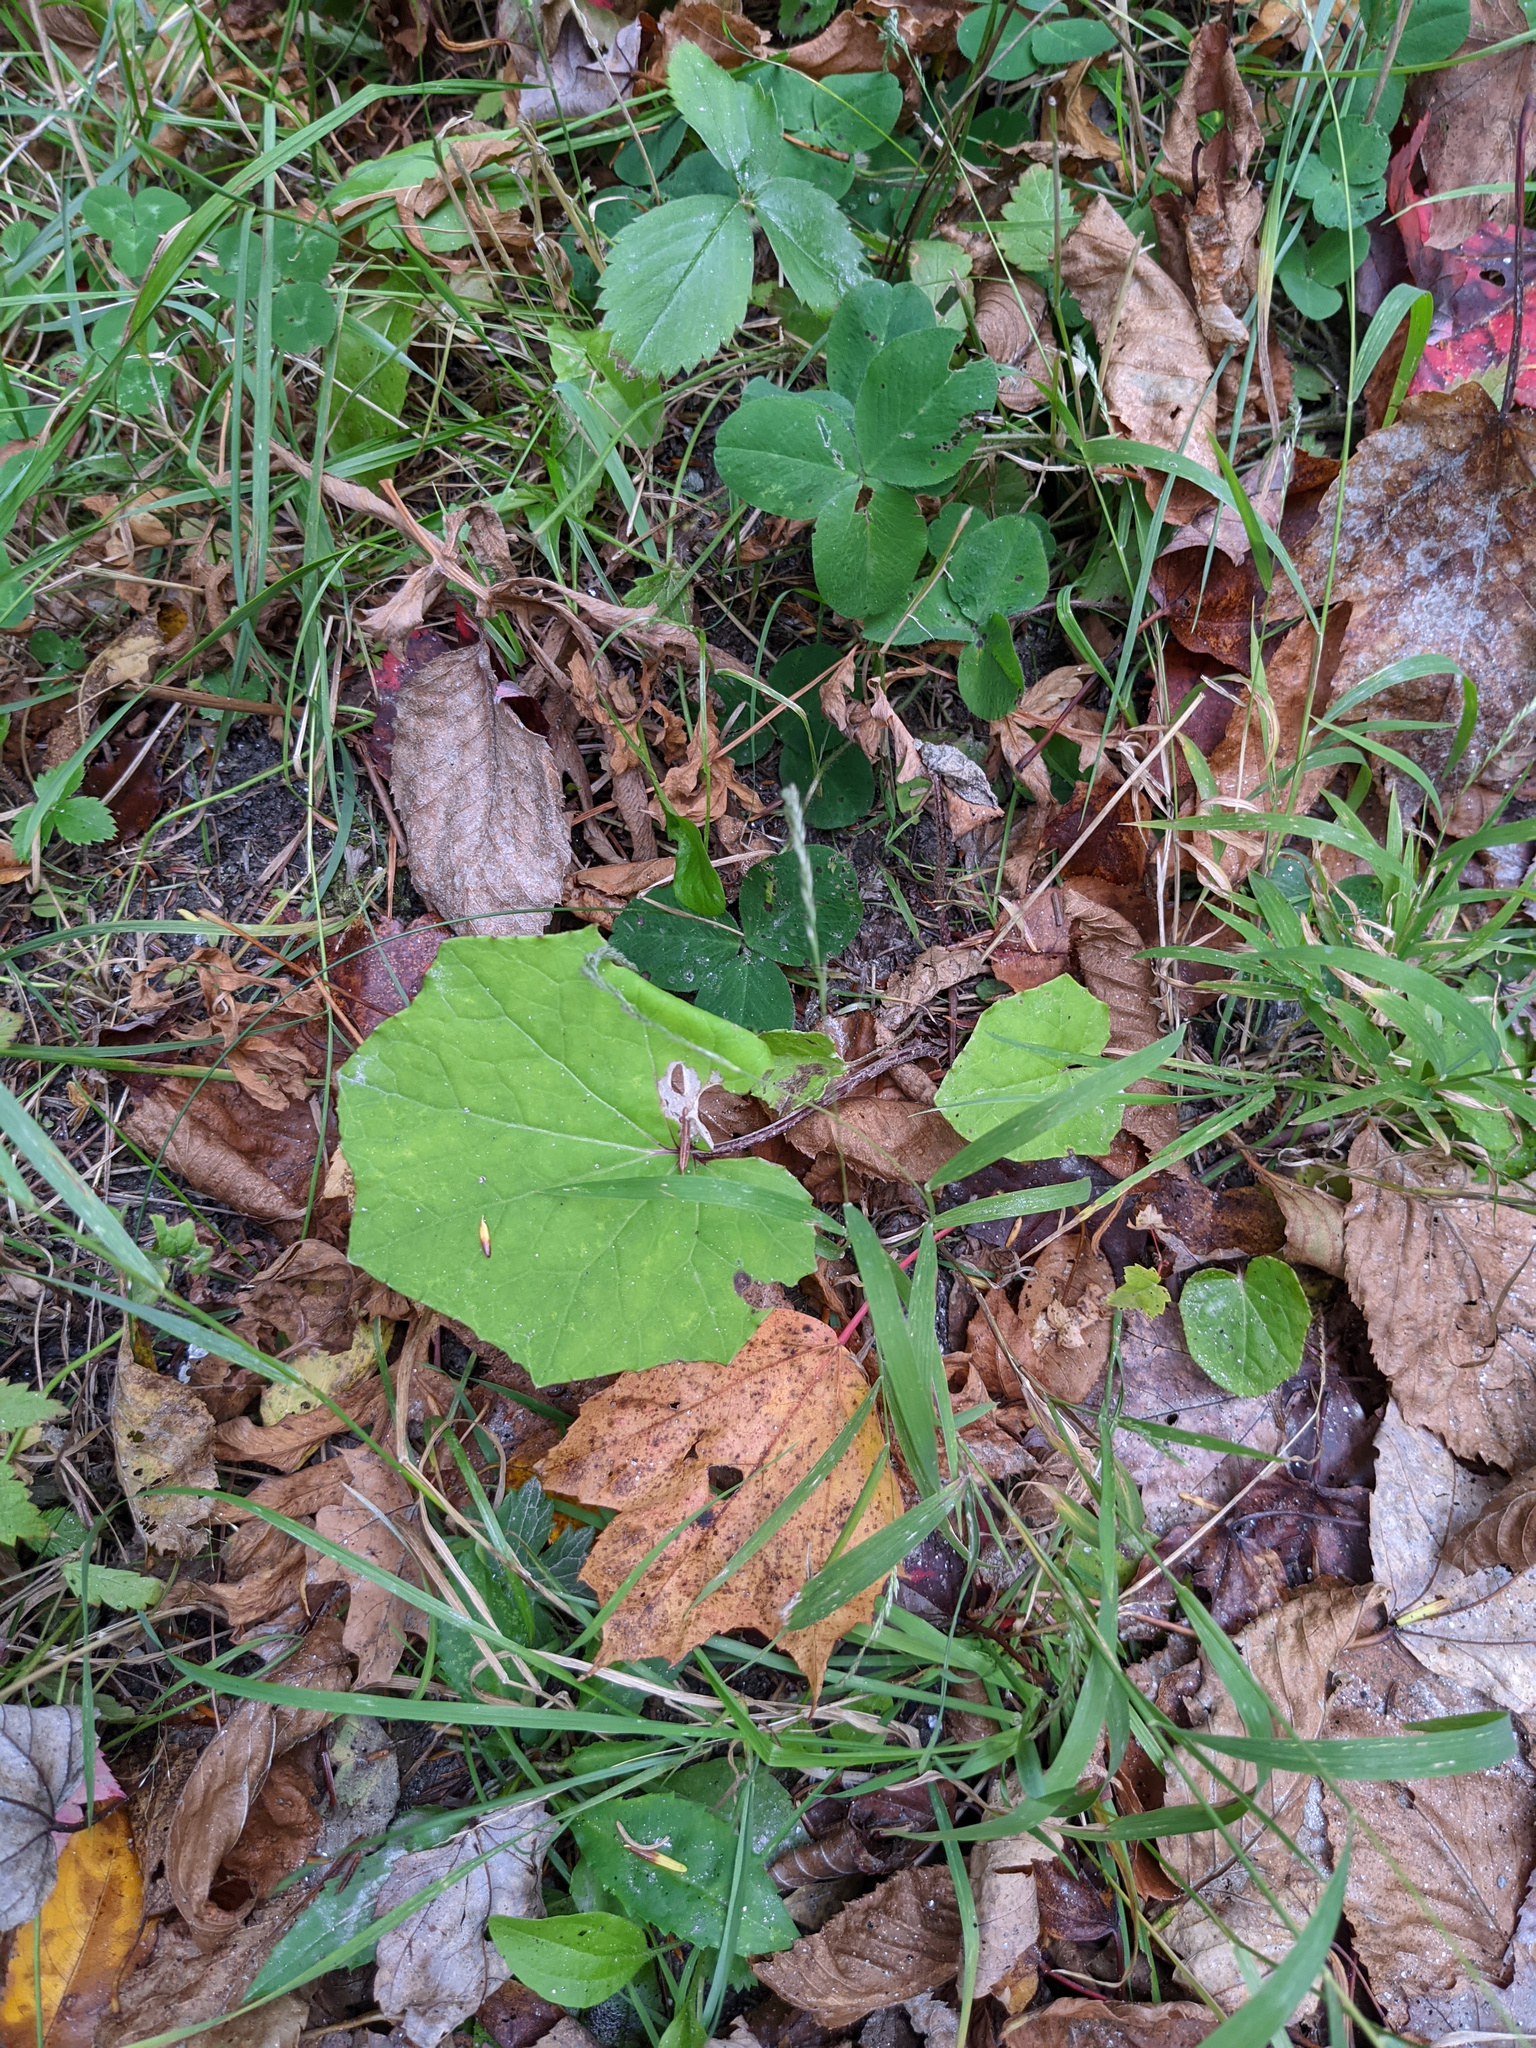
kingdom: Plantae
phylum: Tracheophyta
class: Magnoliopsida
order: Asterales
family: Asteraceae
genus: Tussilago
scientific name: Tussilago farfara
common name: Coltsfoot
